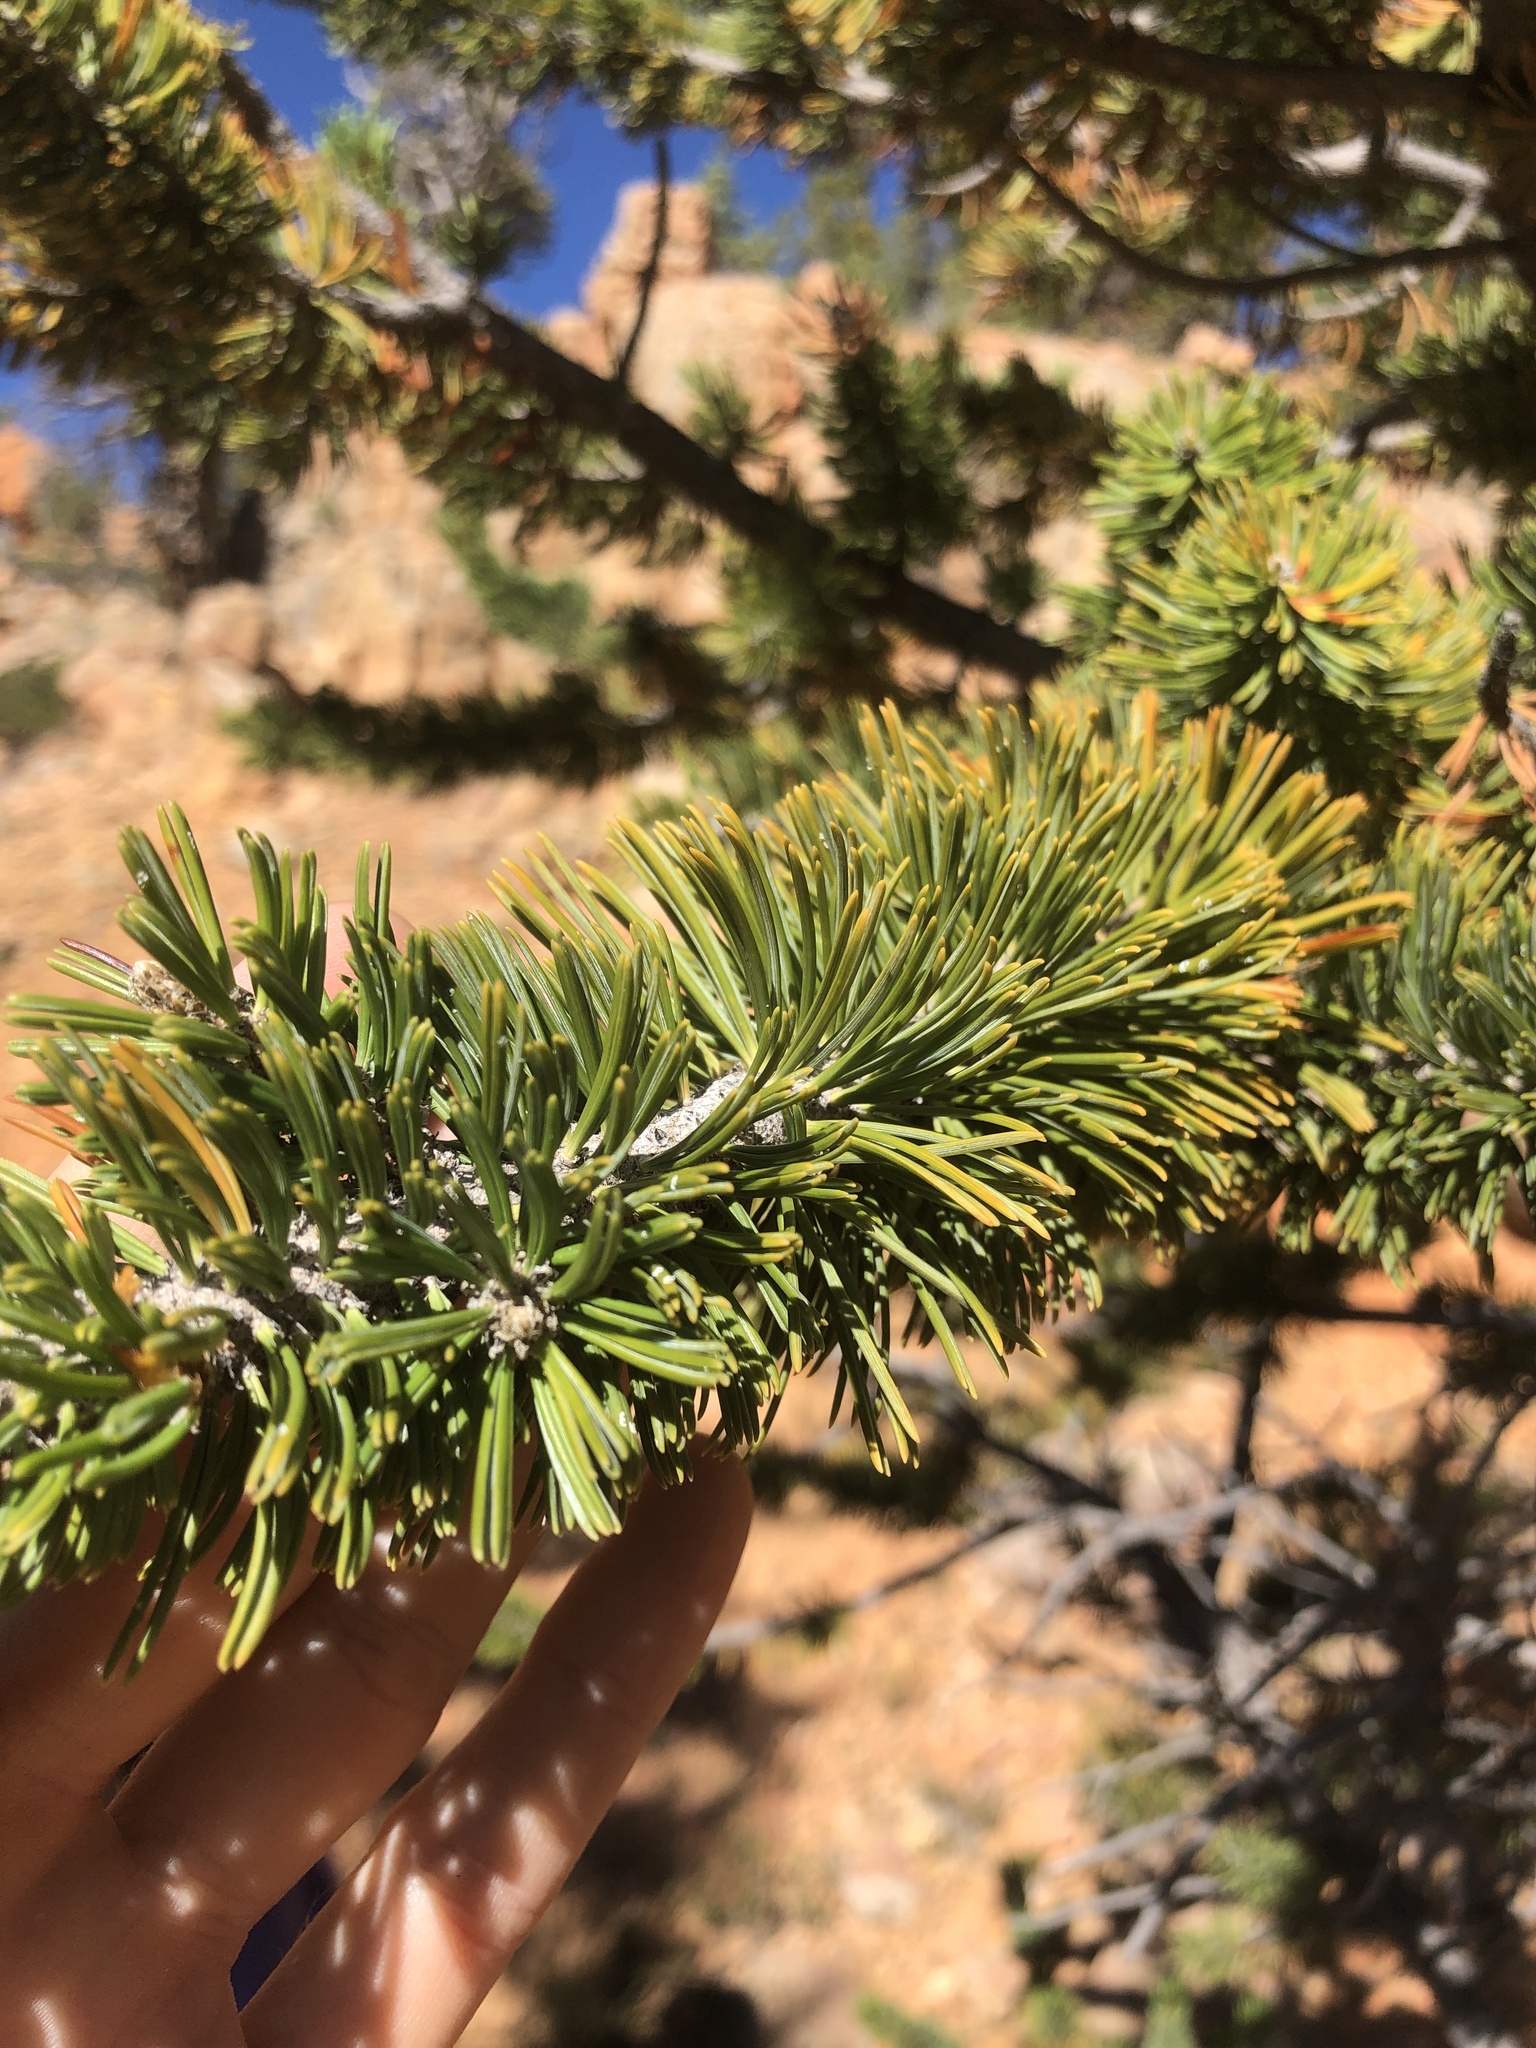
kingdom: Plantae
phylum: Tracheophyta
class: Pinopsida
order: Pinales
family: Pinaceae
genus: Pinus
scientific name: Pinus longaeva
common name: Intermountain bristlecone pine
